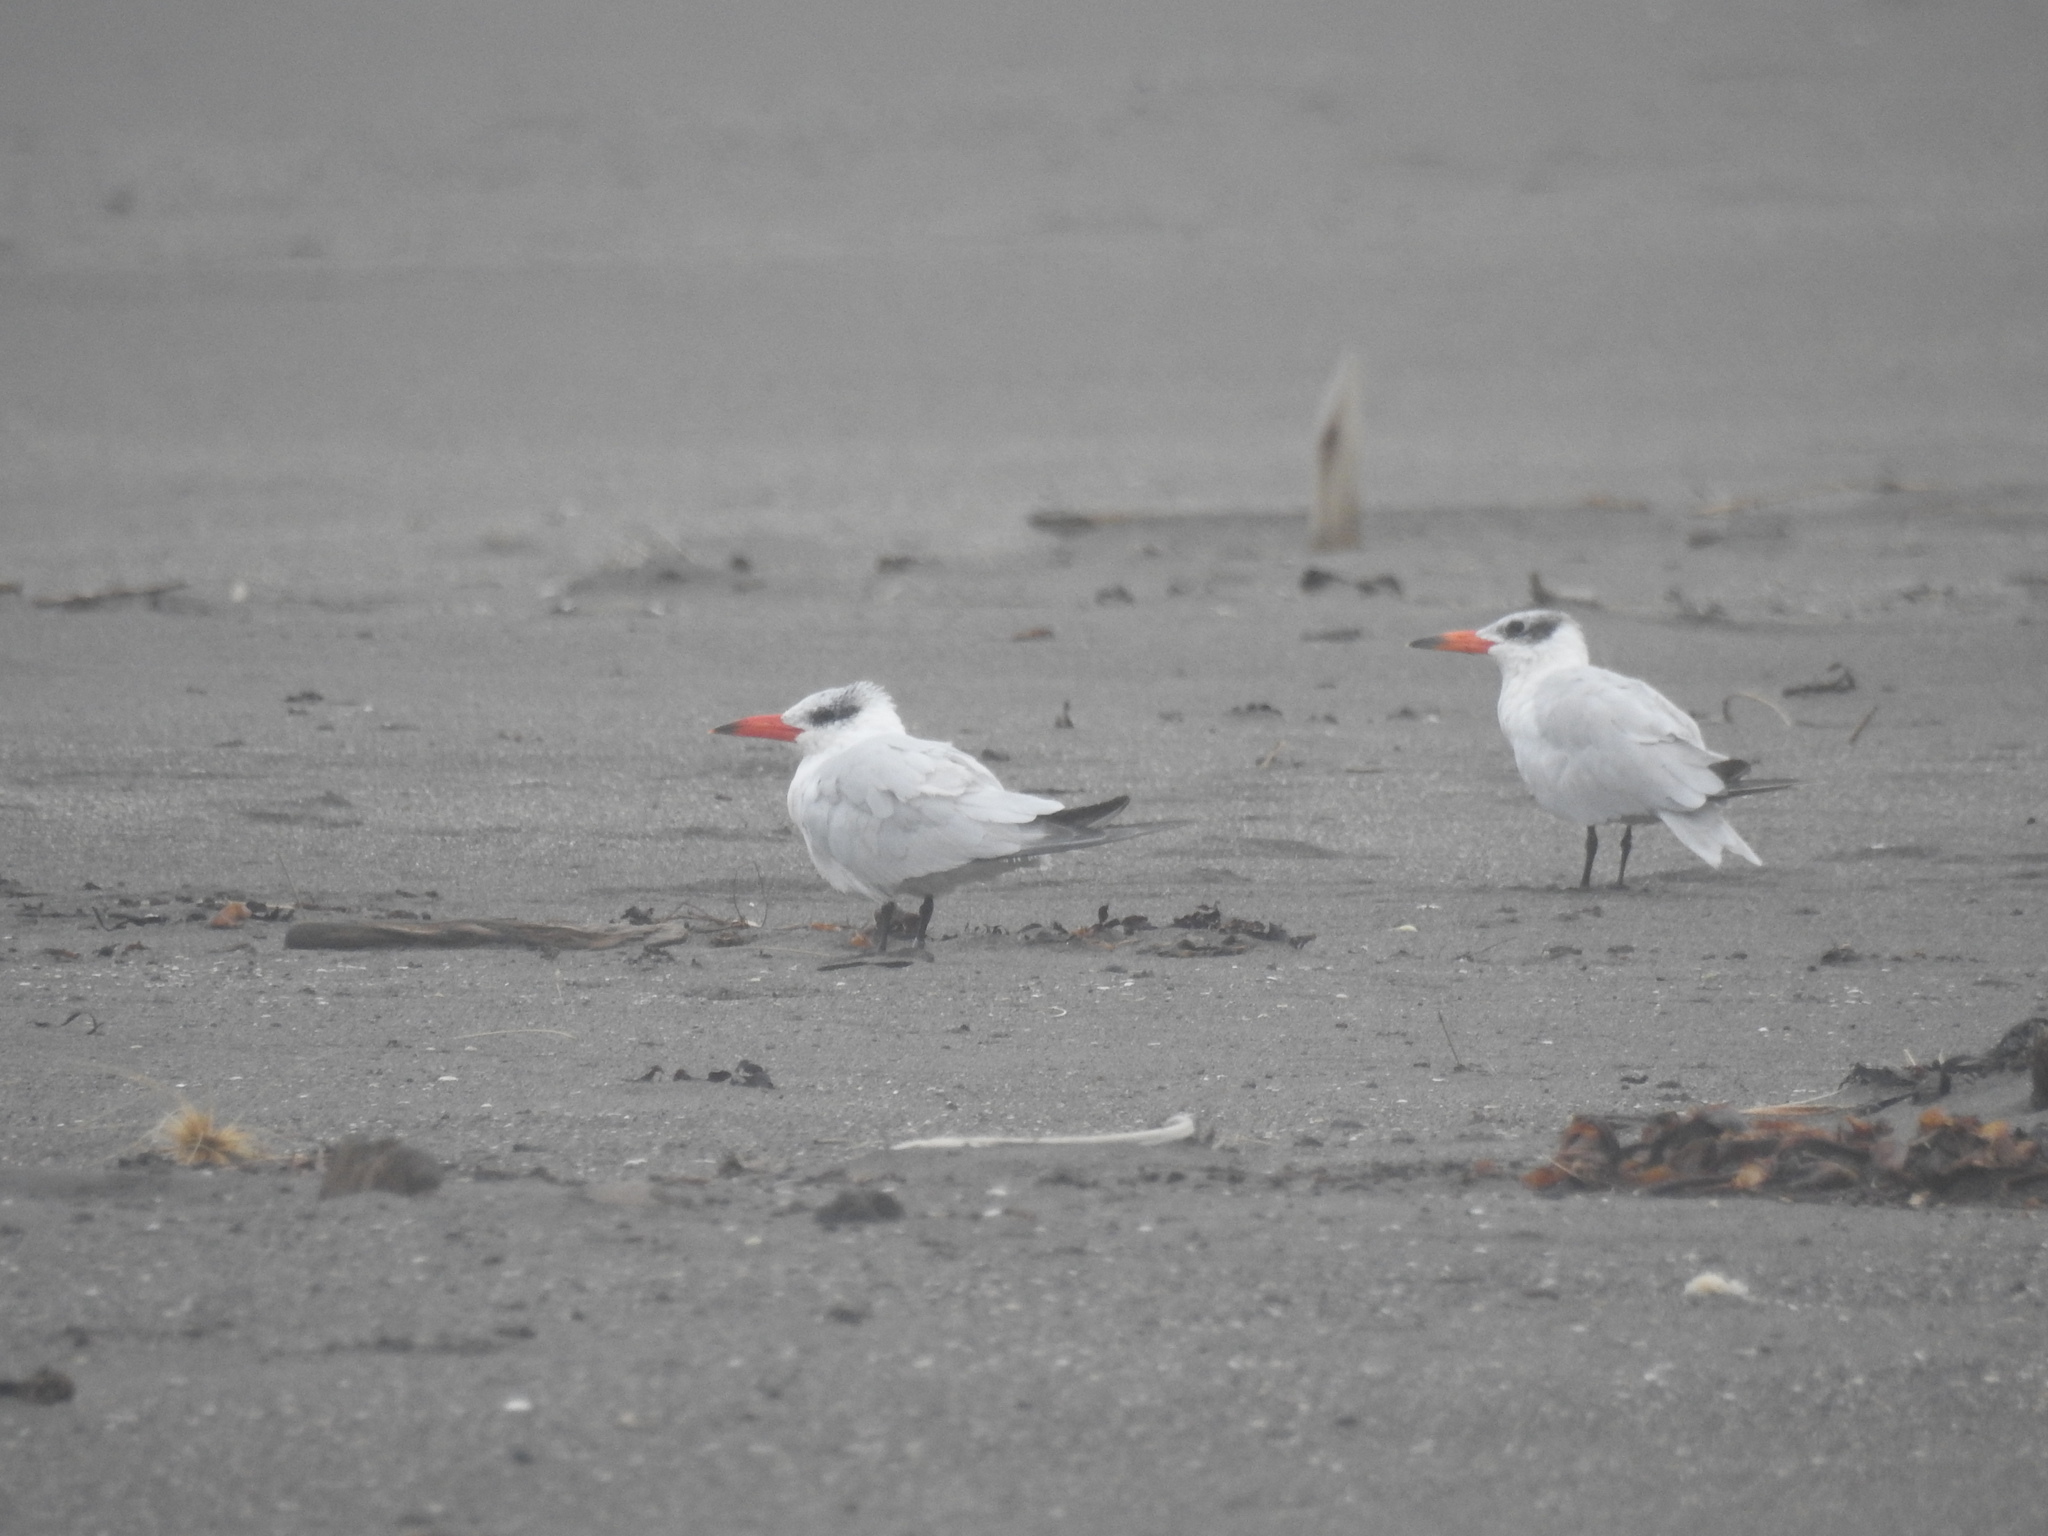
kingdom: Animalia
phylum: Chordata
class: Aves
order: Charadriiformes
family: Laridae
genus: Hydroprogne
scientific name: Hydroprogne caspia
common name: Caspian tern
